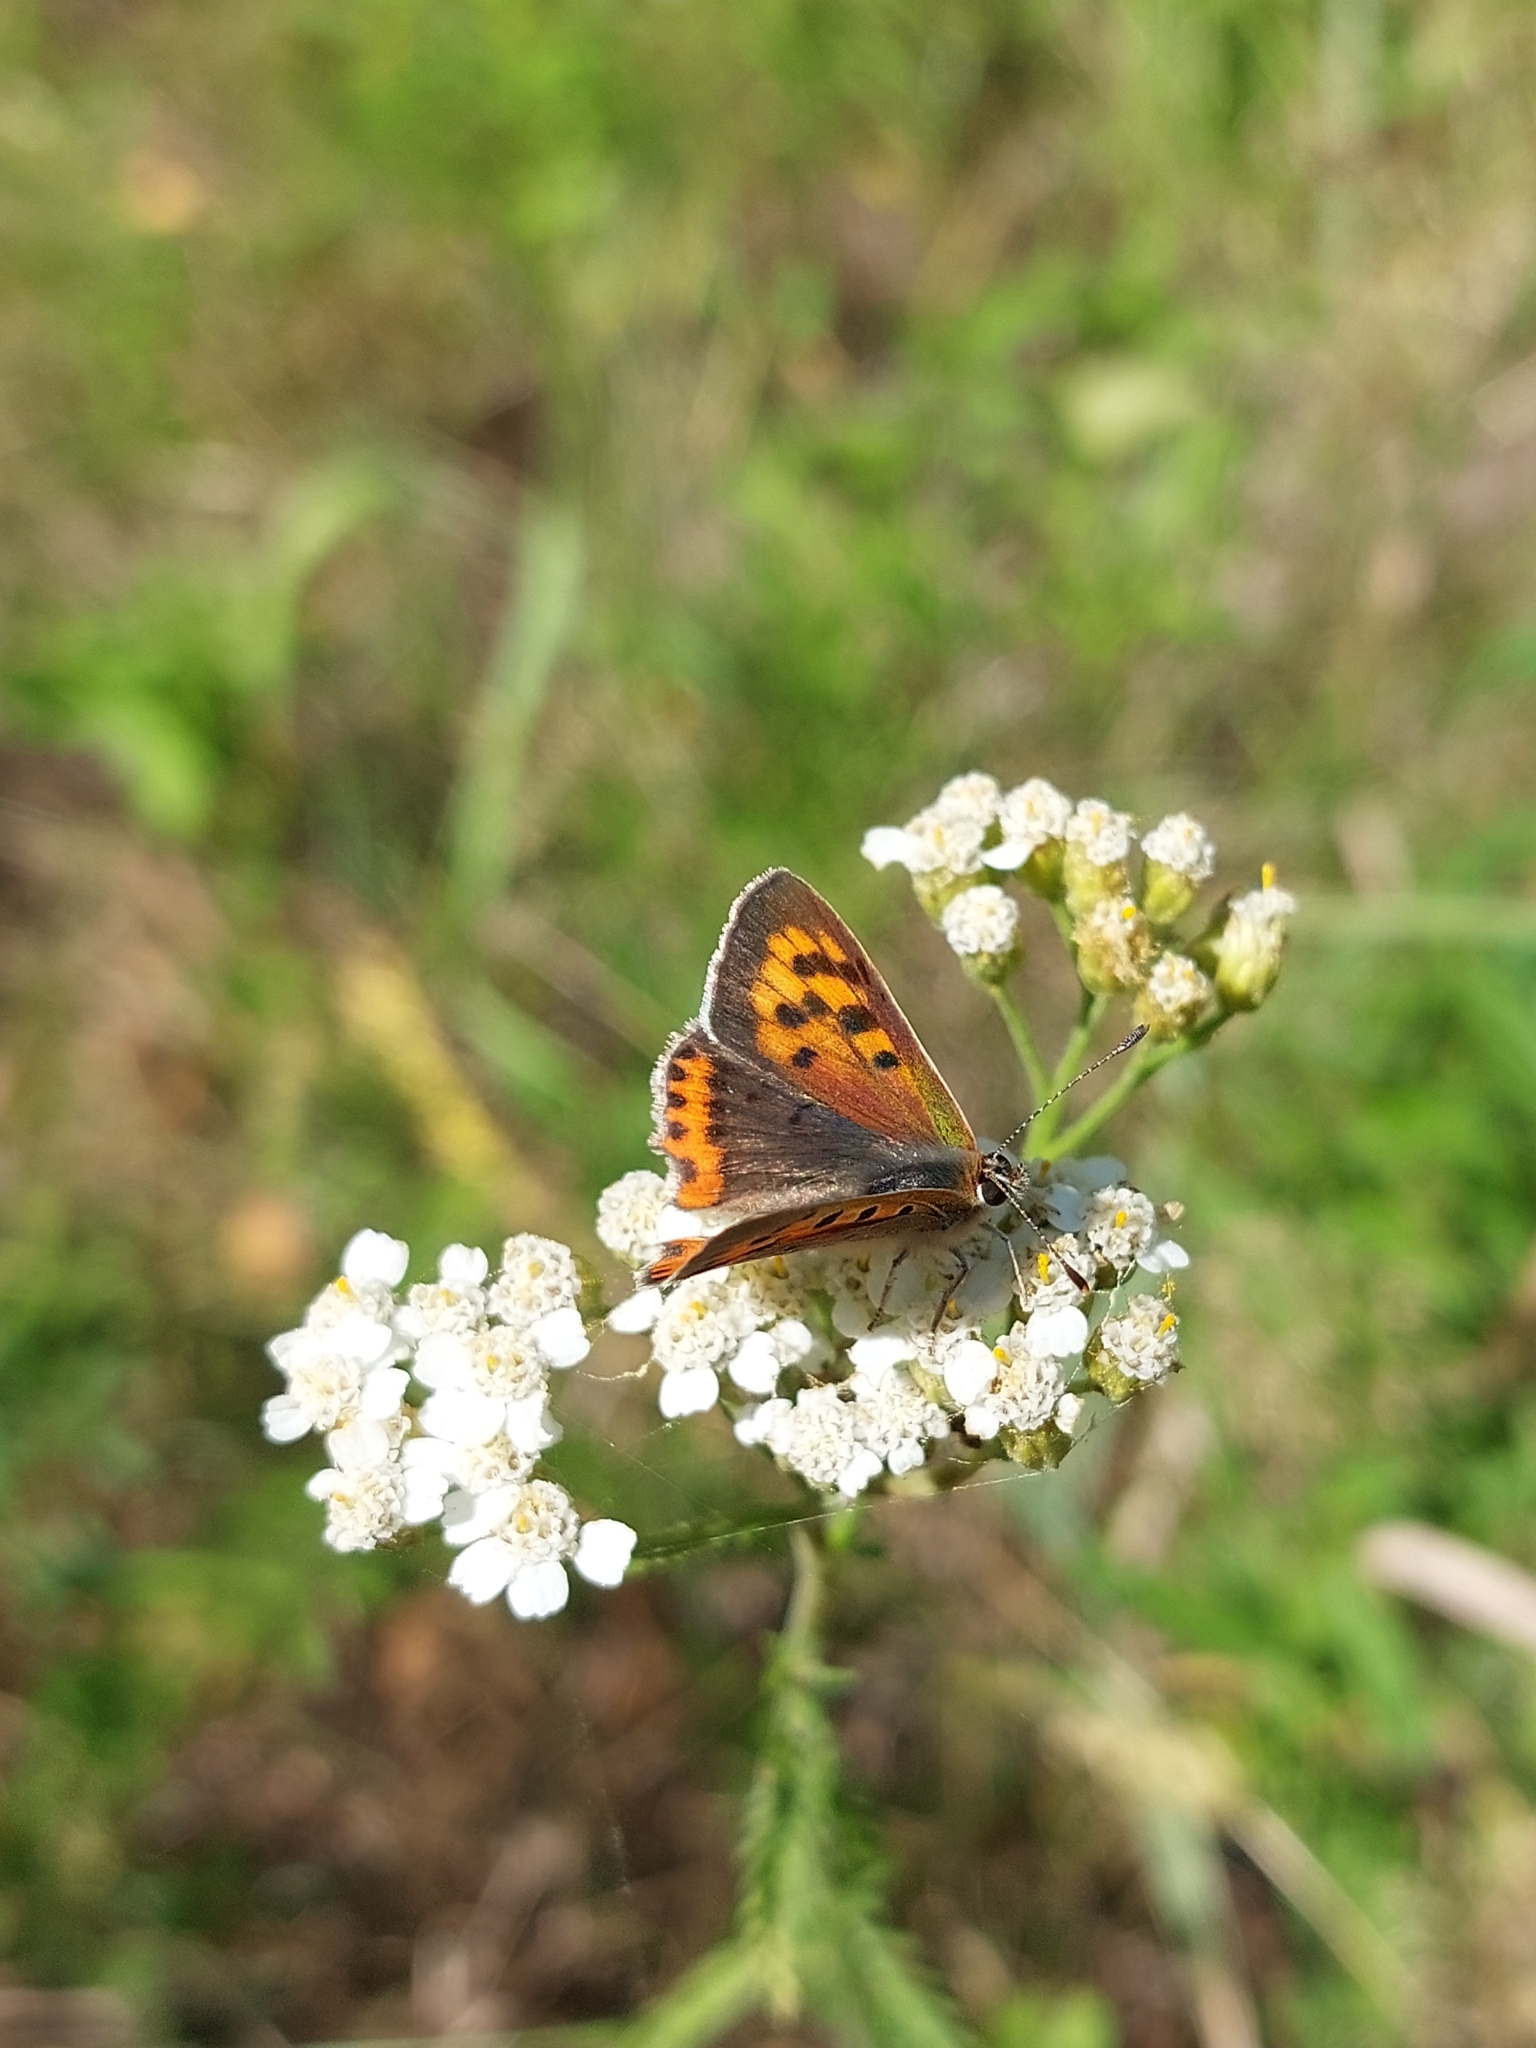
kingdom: Animalia
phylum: Arthropoda
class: Insecta
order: Lepidoptera
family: Lycaenidae
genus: Lycaena
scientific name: Lycaena phlaeas
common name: Small copper
